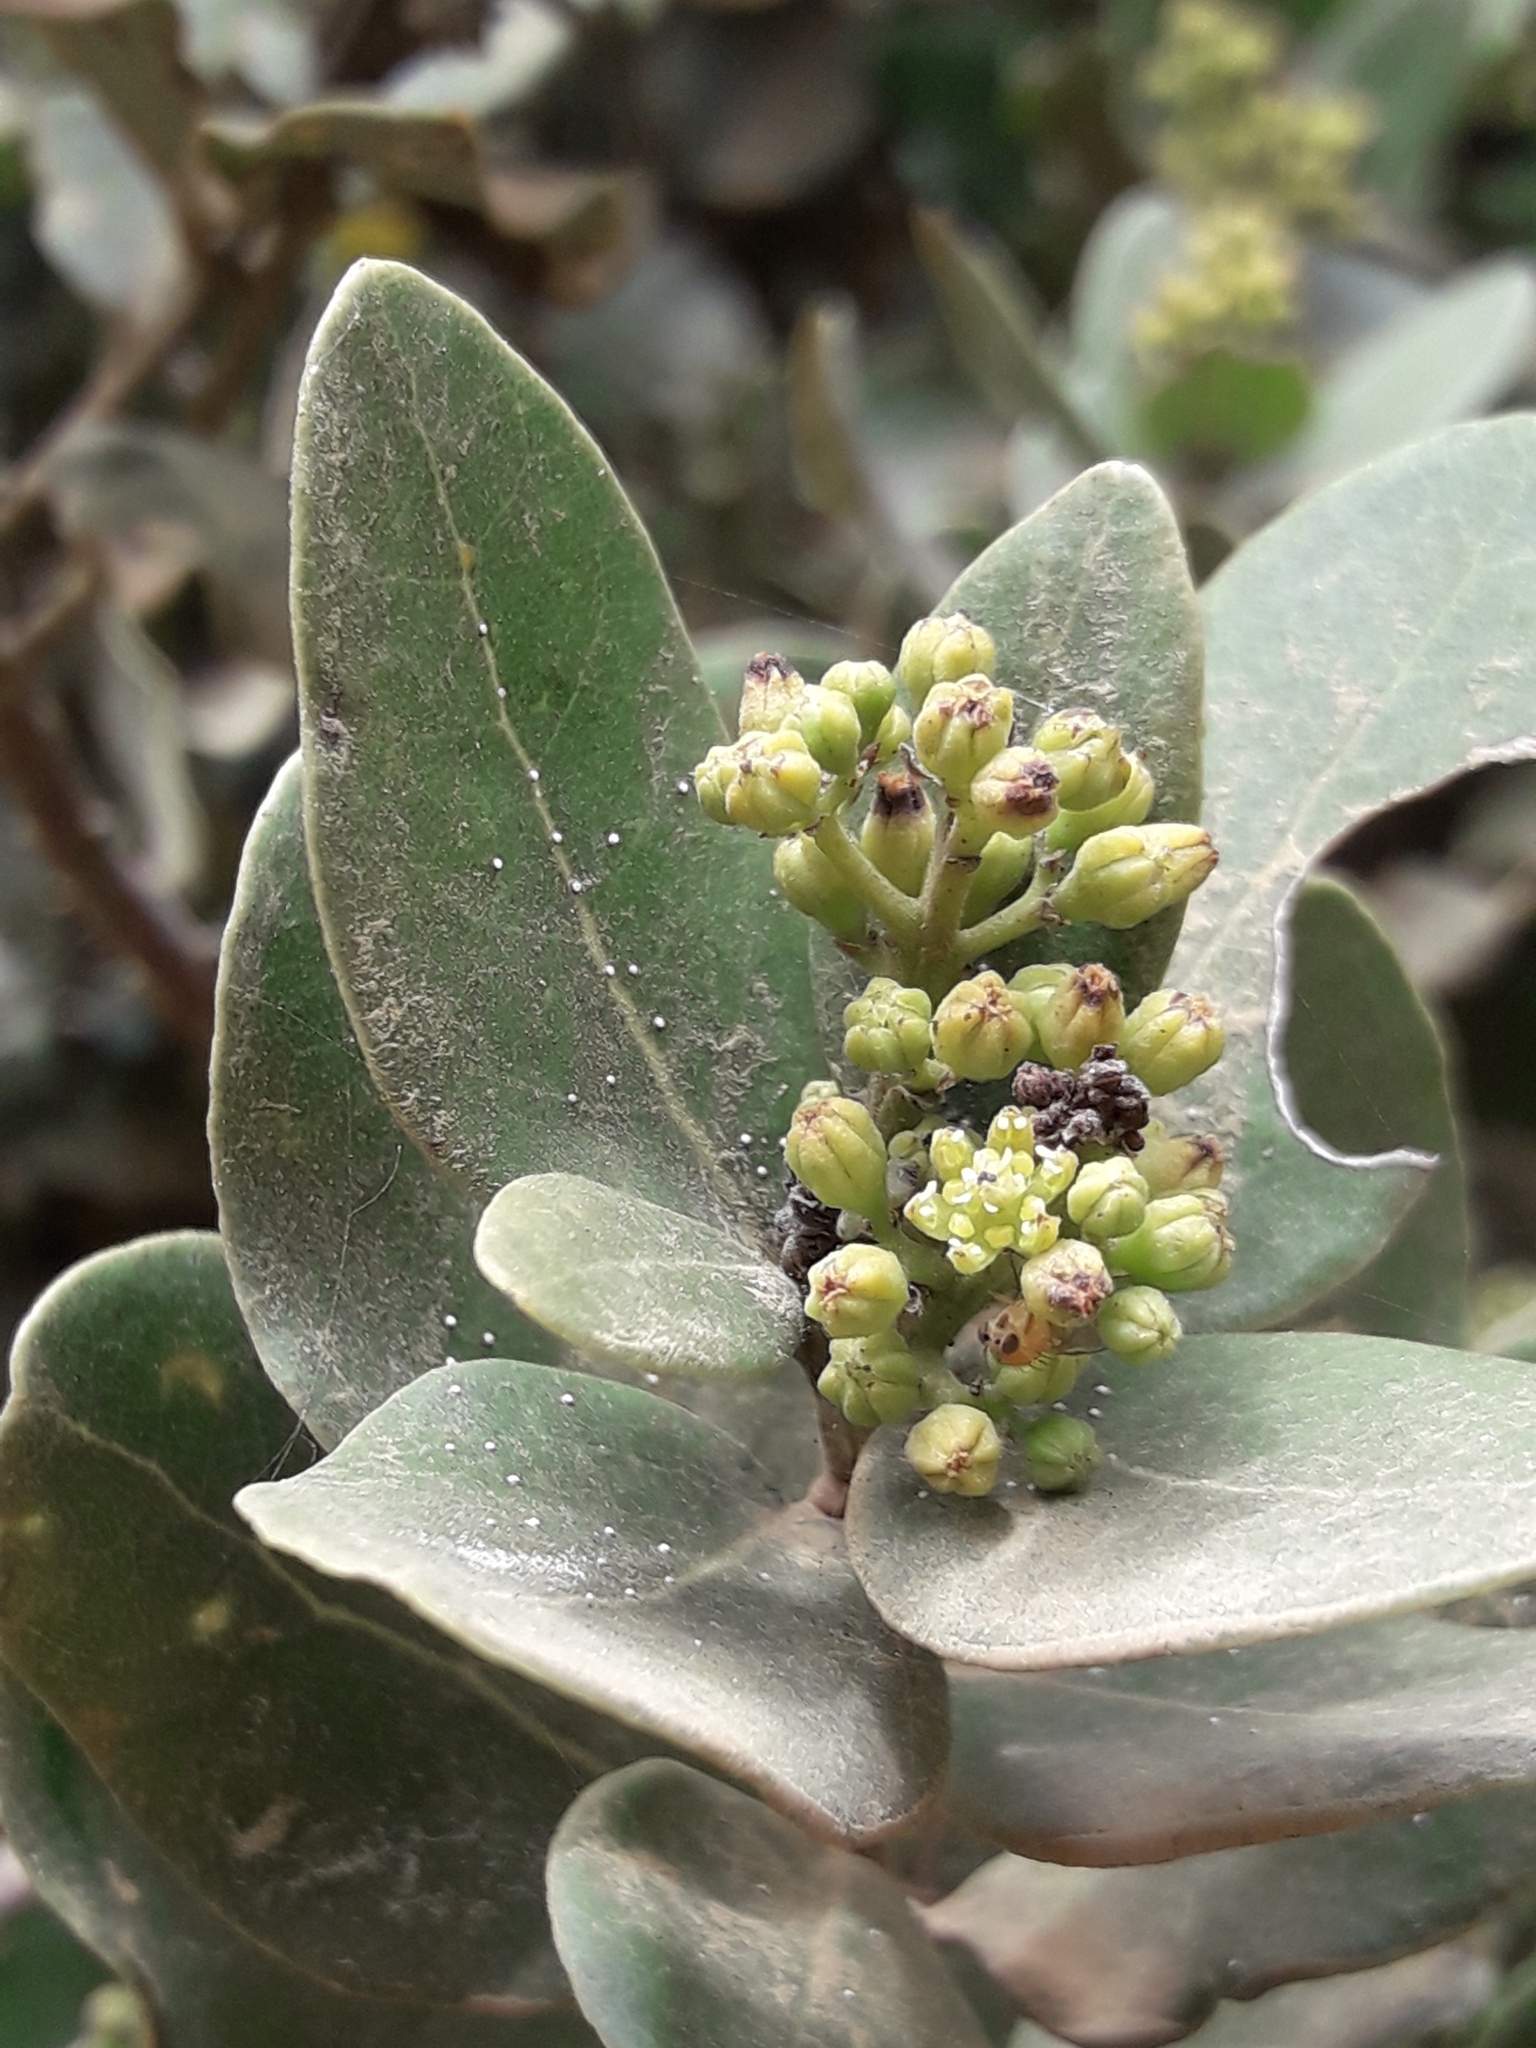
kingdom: Plantae
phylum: Tracheophyta
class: Magnoliopsida
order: Laurales
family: Lauraceae
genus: Cryptocarya
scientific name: Cryptocarya alba
